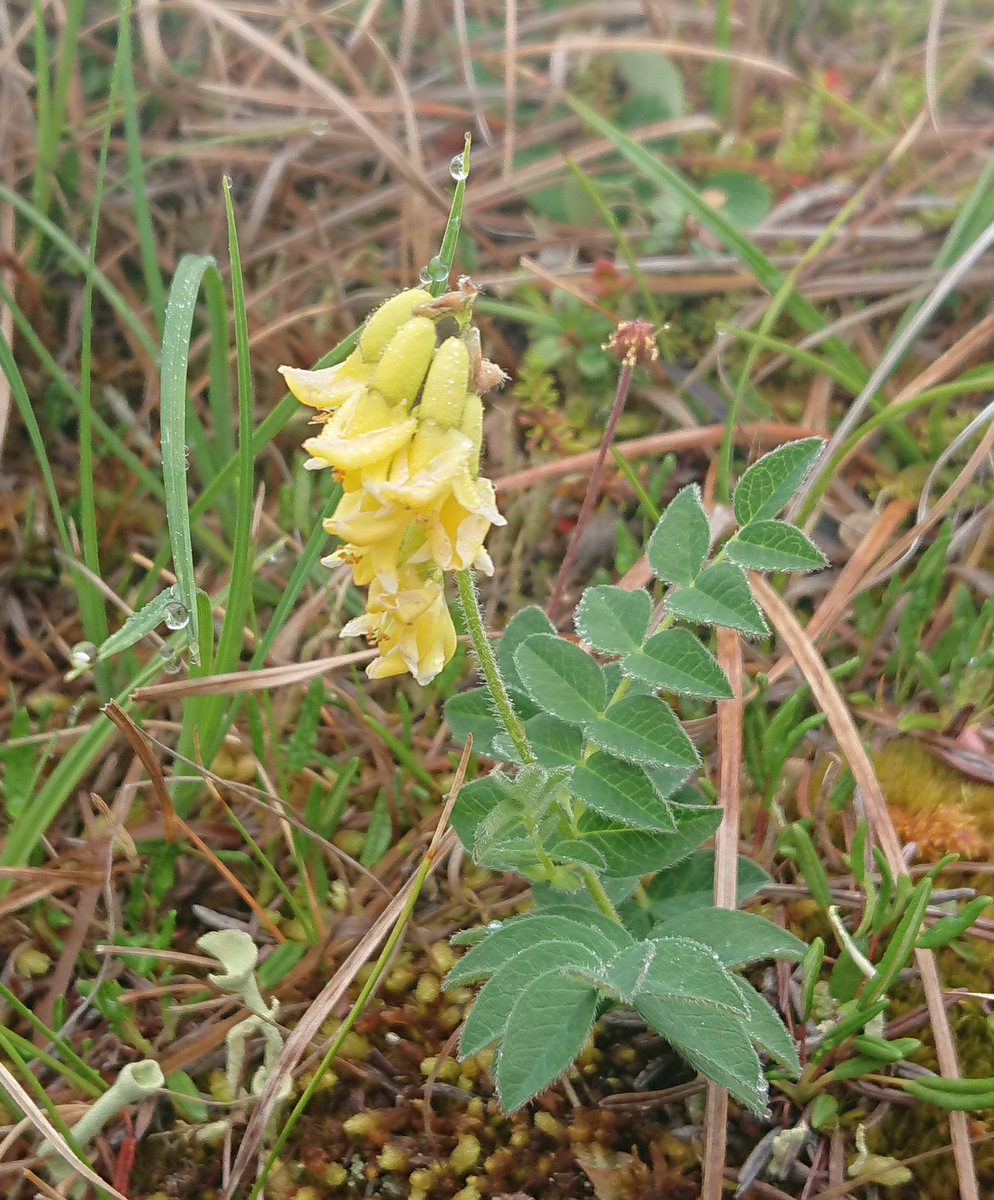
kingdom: Plantae
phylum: Tracheophyta
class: Magnoliopsida
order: Fabales
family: Fabaceae
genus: Astragalus
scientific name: Astragalus umbellatus
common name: Tundra milk-vetch
